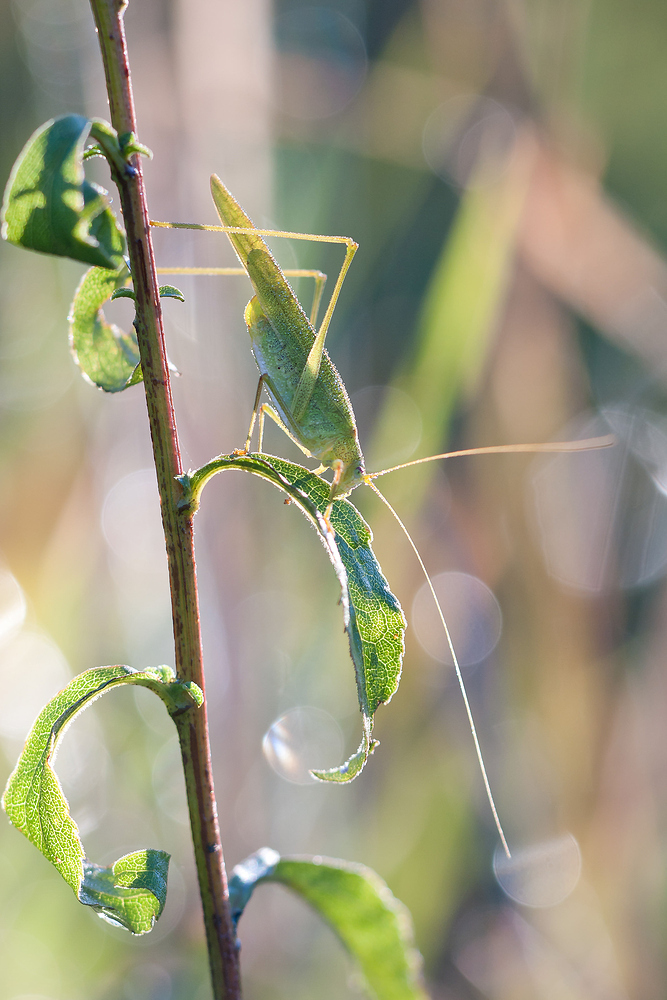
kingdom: Animalia
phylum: Arthropoda
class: Insecta
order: Orthoptera
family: Tettigoniidae
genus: Phaneroptera
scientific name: Phaneroptera falcata
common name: Sickle-bearing bush-cricket
